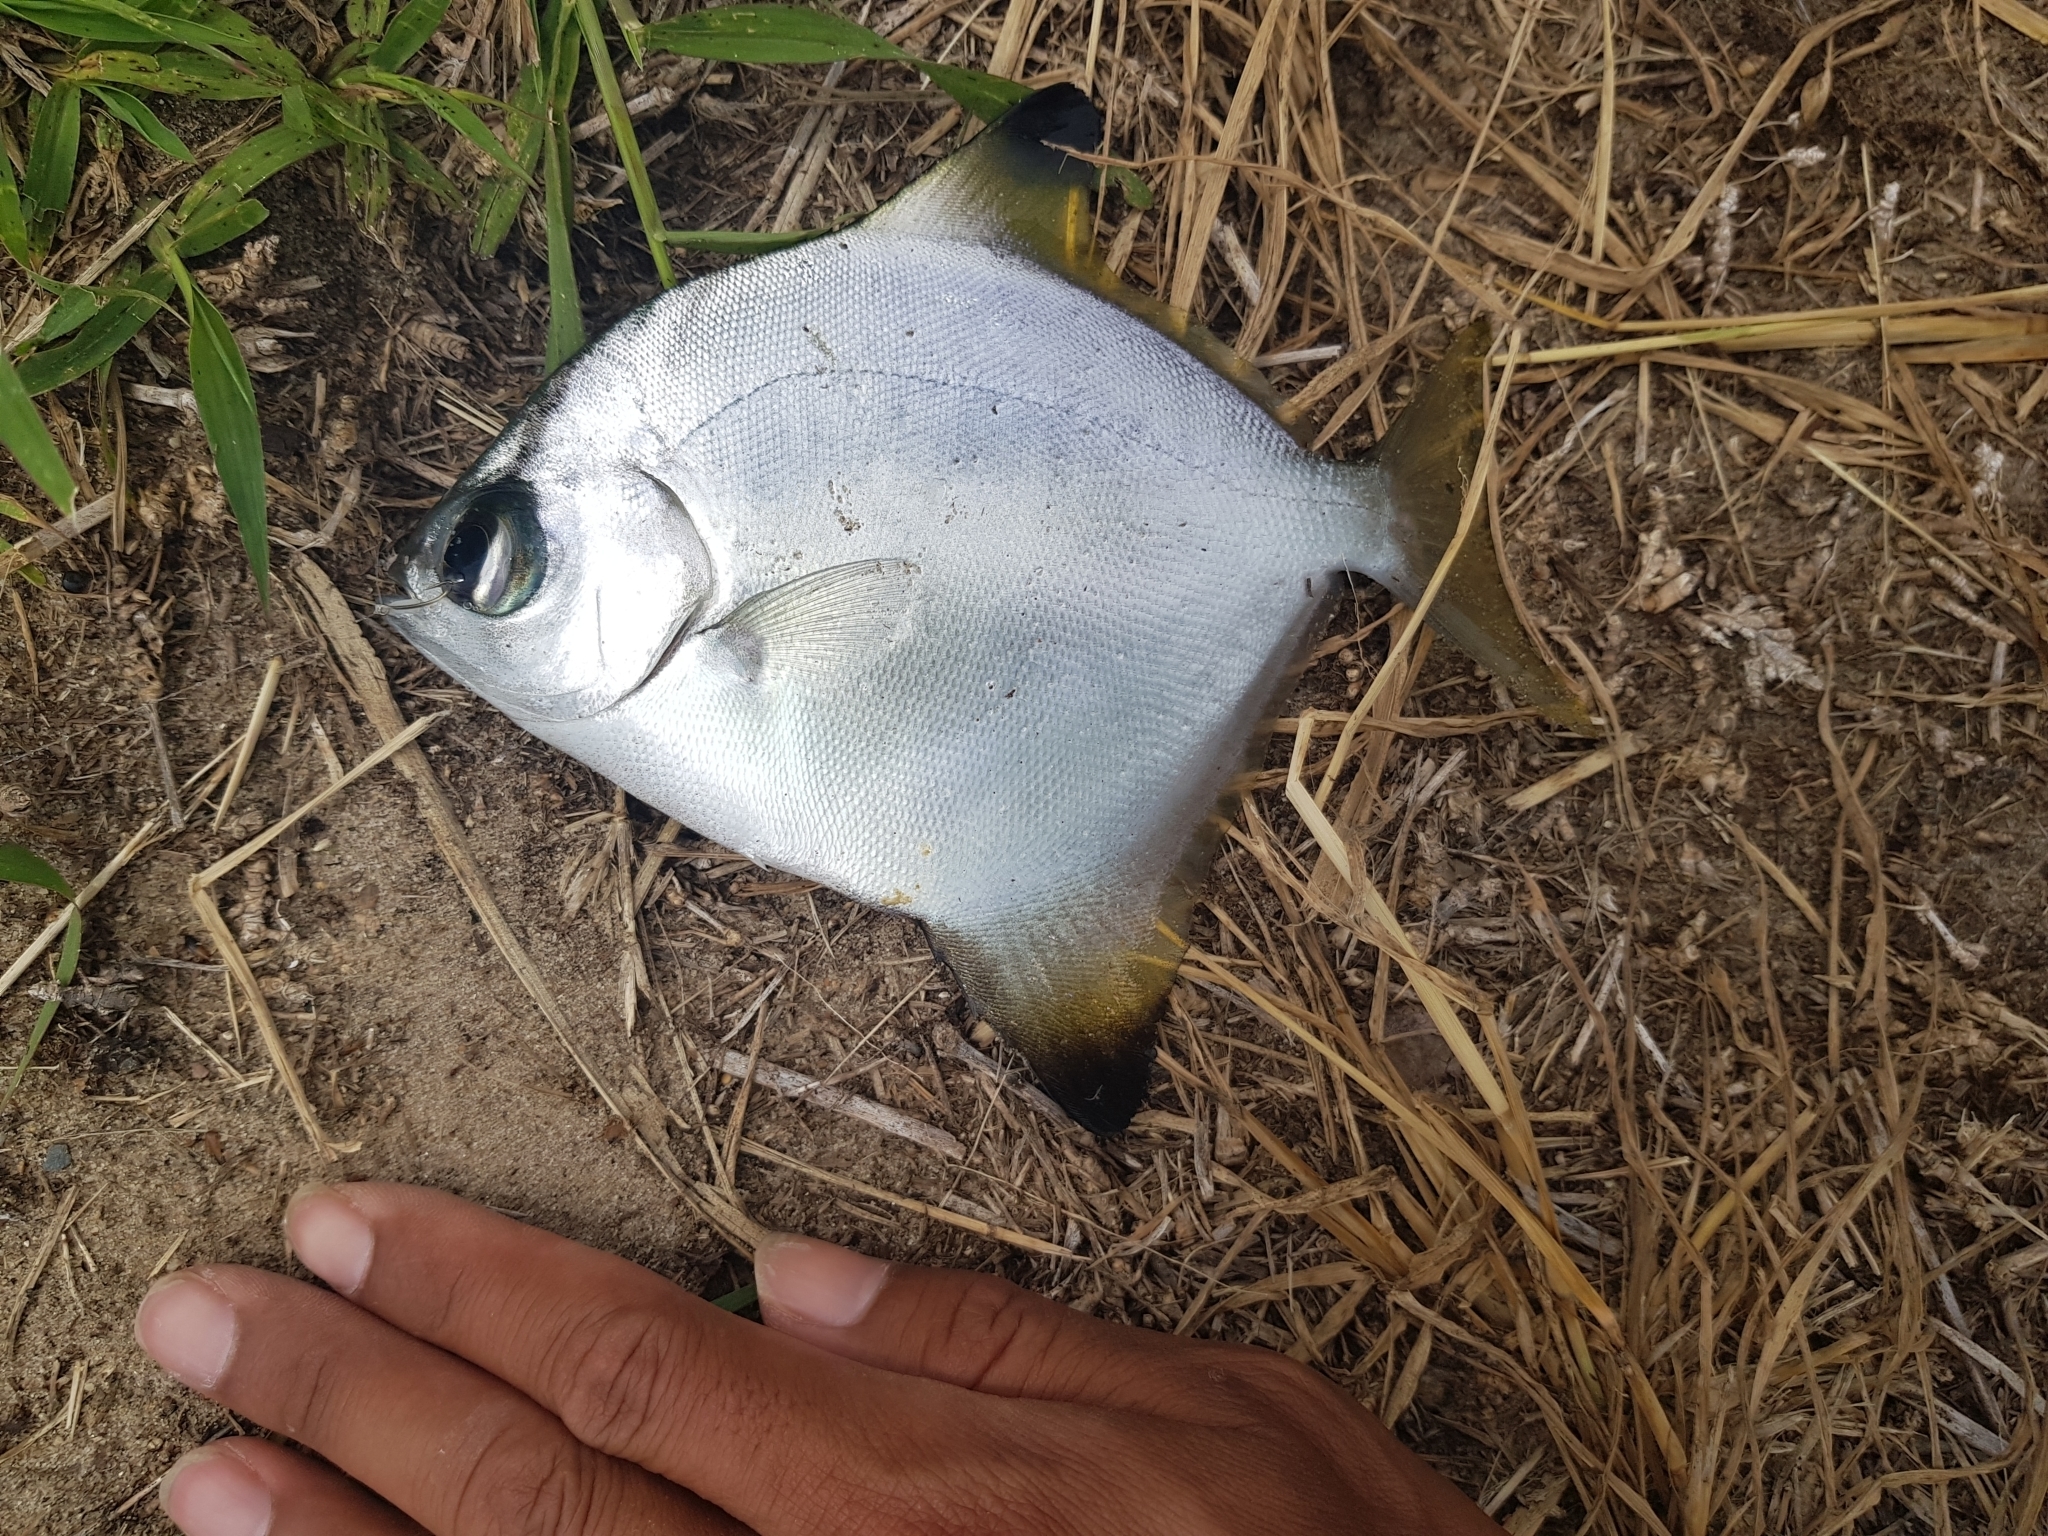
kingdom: Animalia
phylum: Chordata
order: Perciformes
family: Monodactylidae
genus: Monodactylus
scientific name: Monodactylus argenteus
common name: Silver moony
